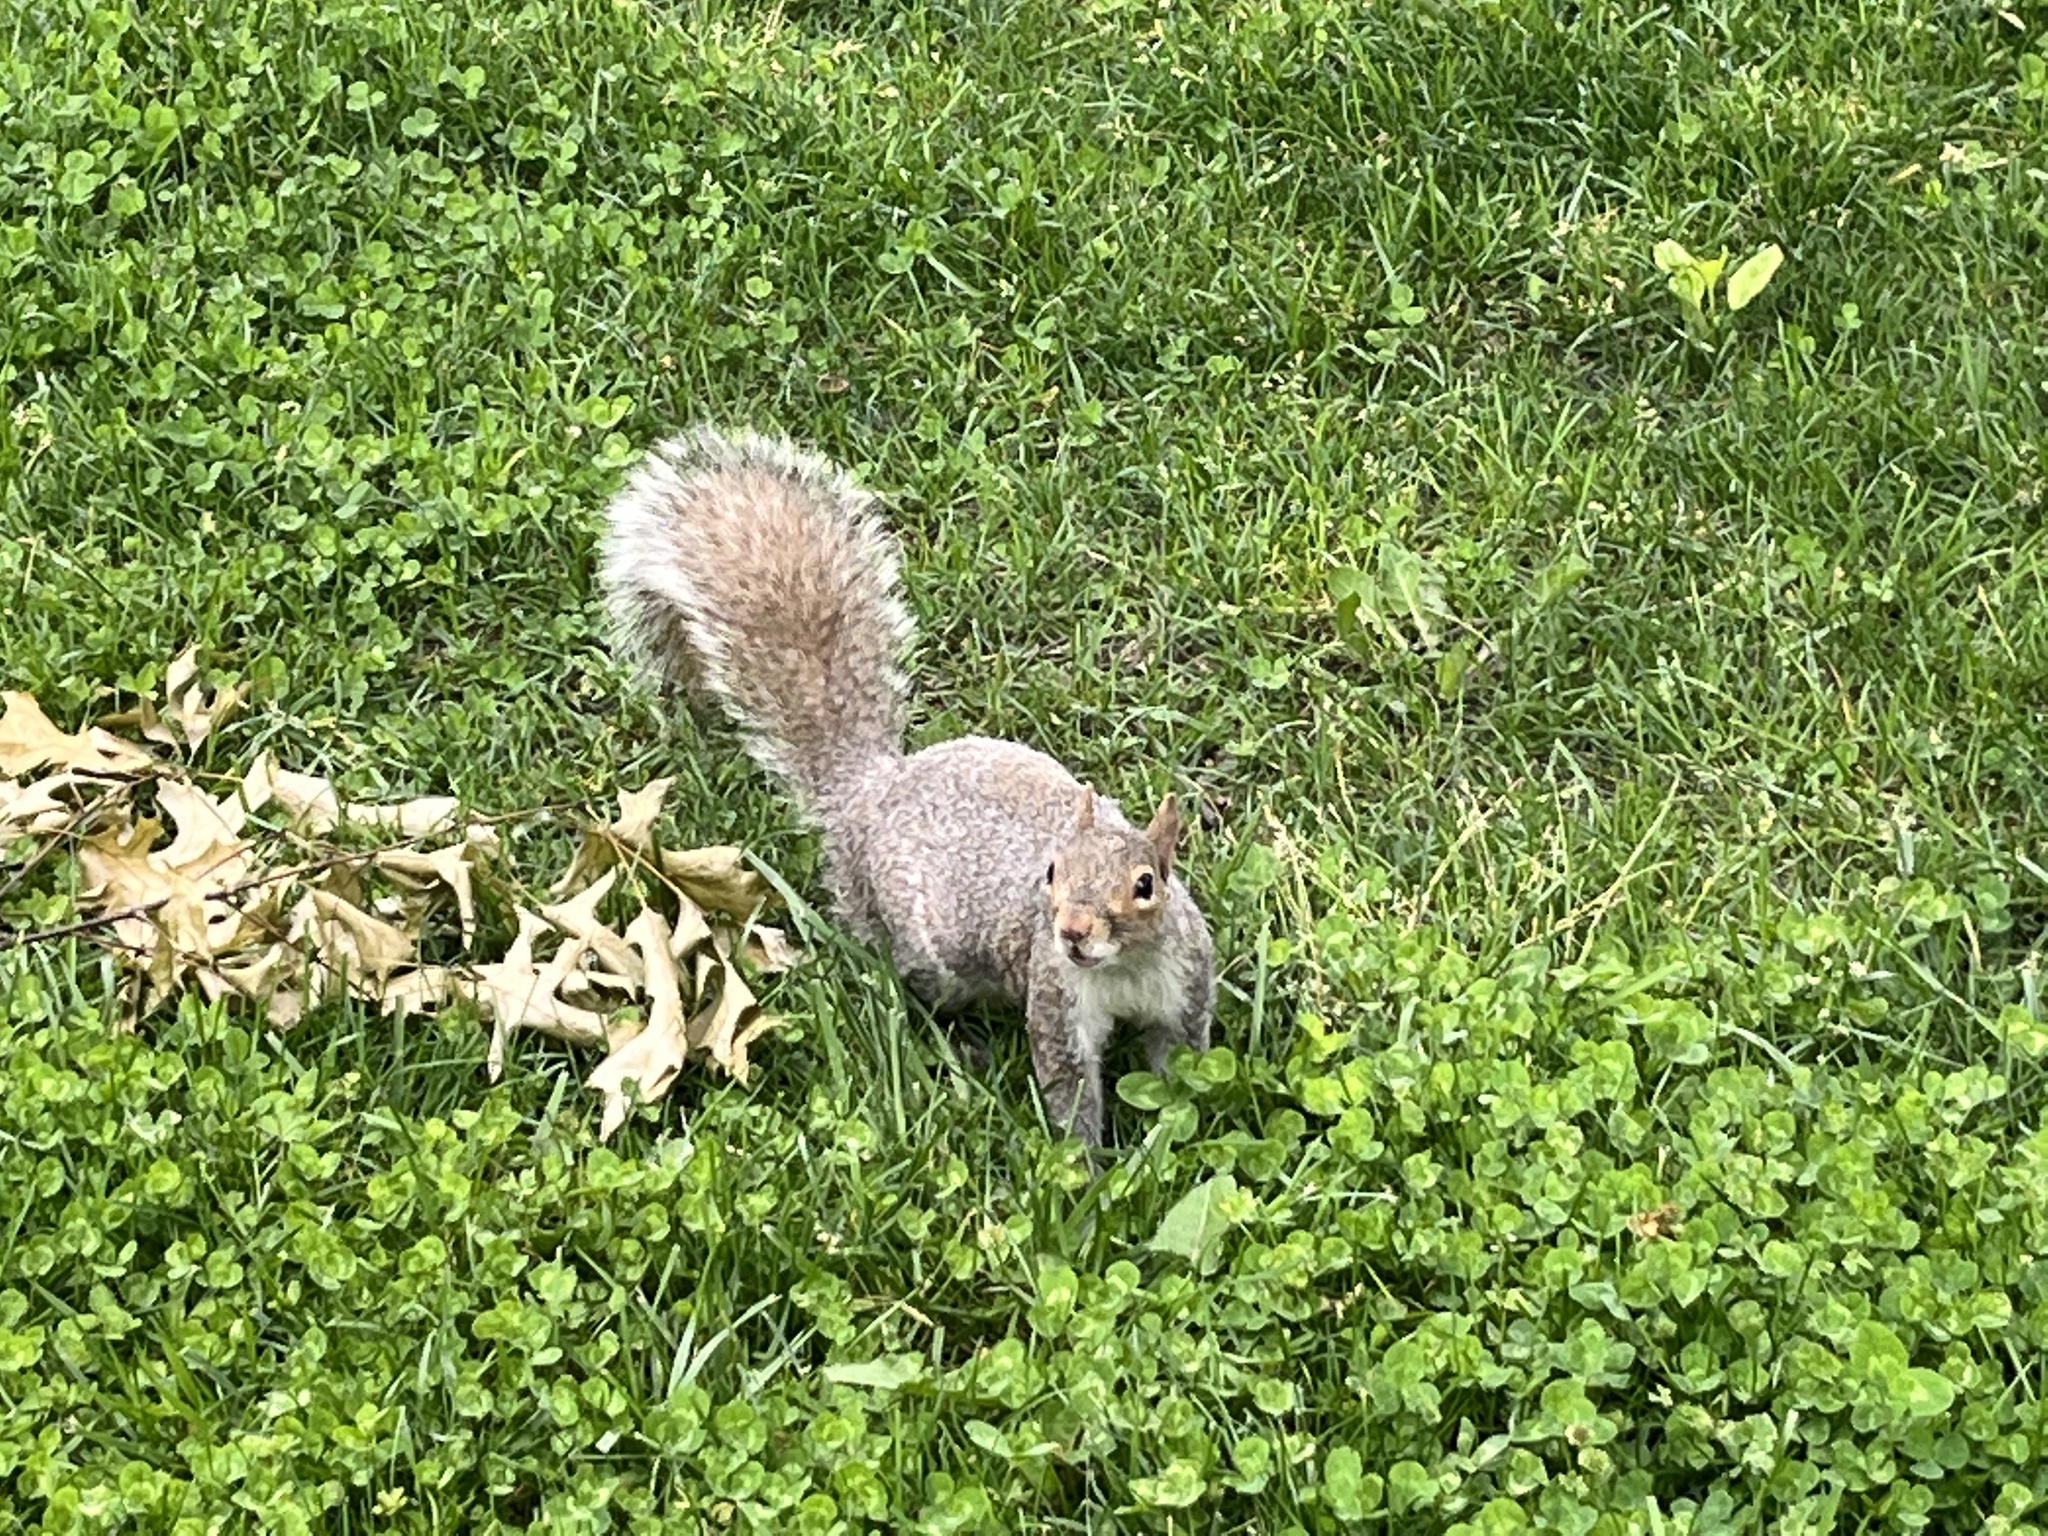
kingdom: Animalia
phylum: Chordata
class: Mammalia
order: Rodentia
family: Sciuridae
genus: Sciurus
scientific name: Sciurus carolinensis
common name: Eastern gray squirrel
